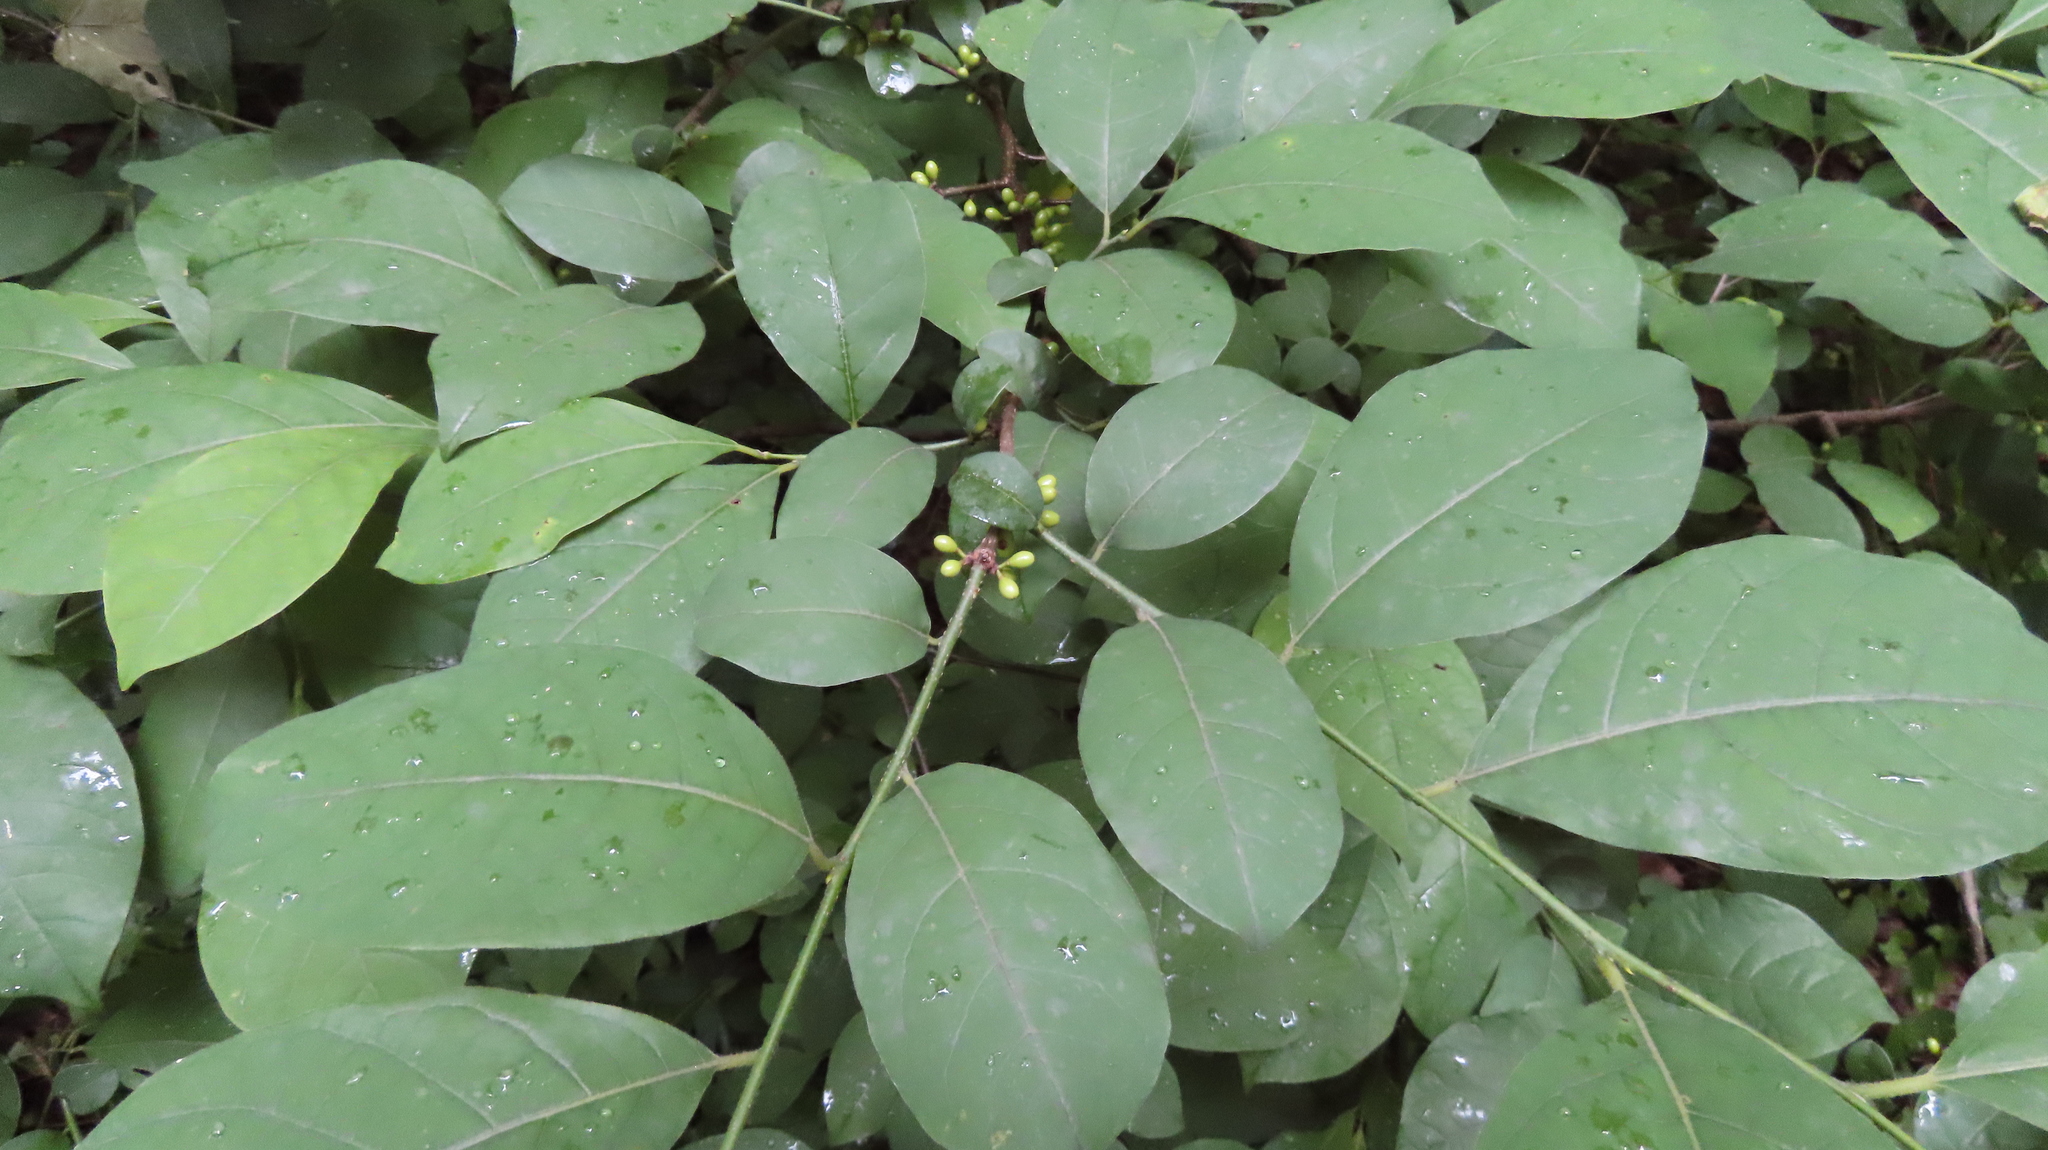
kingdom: Plantae
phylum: Tracheophyta
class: Magnoliopsida
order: Laurales
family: Lauraceae
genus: Lindera
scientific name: Lindera benzoin
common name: Spicebush
